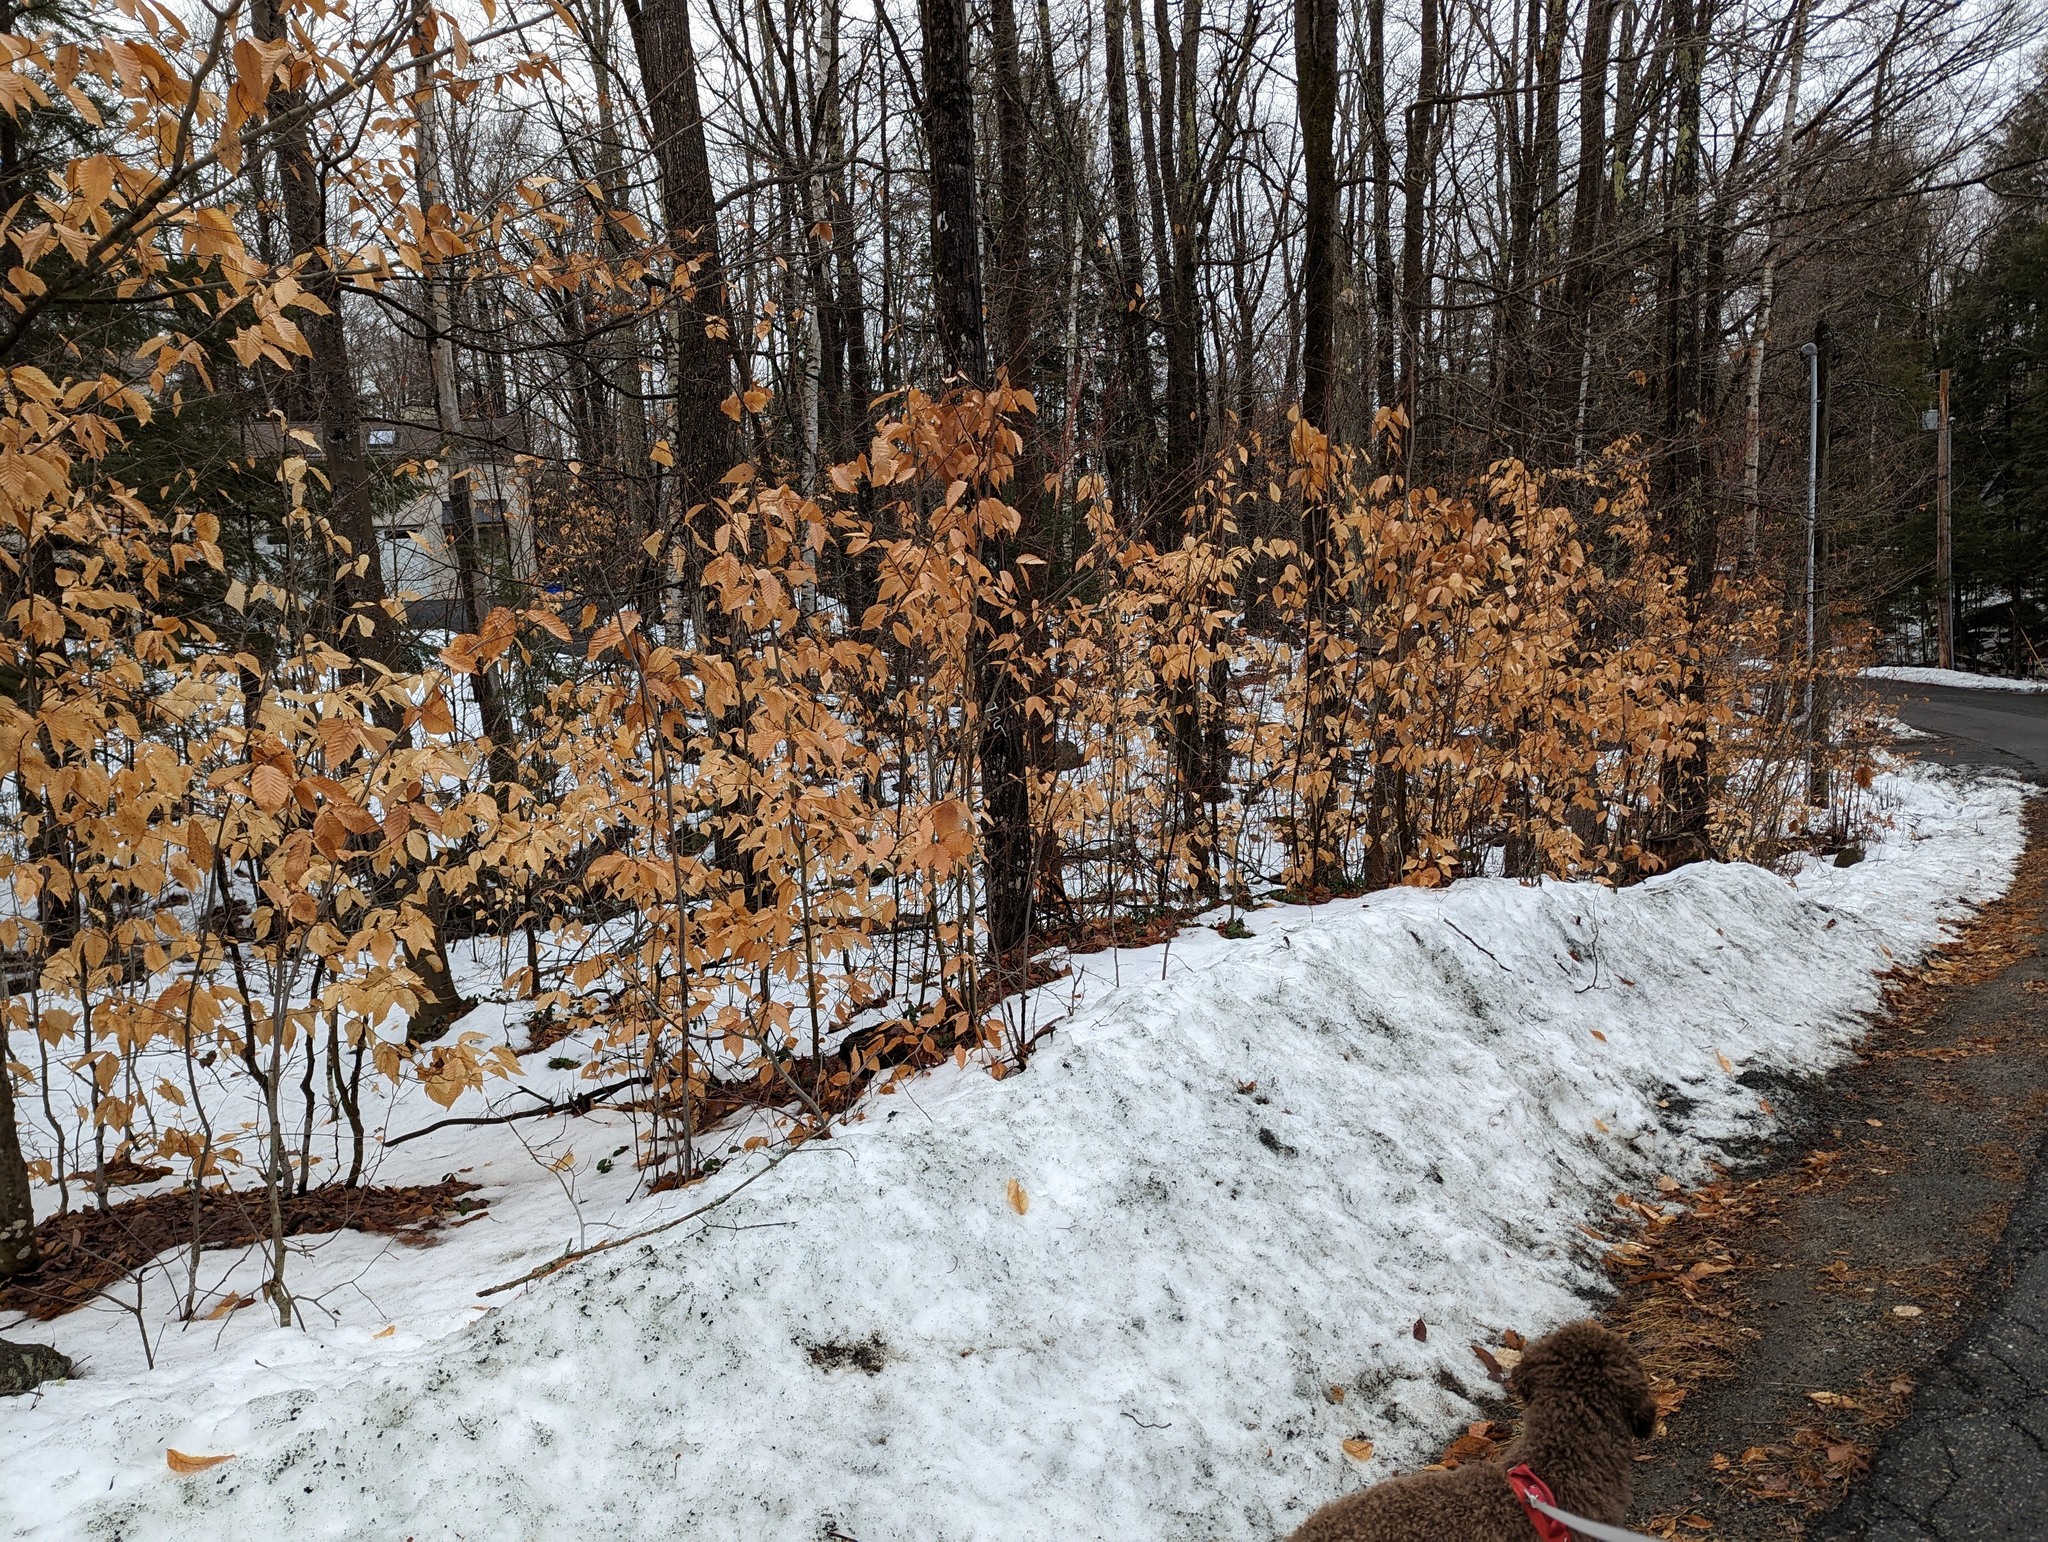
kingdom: Plantae
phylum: Tracheophyta
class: Magnoliopsida
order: Fagales
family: Fagaceae
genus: Fagus
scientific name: Fagus grandifolia
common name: American beech
